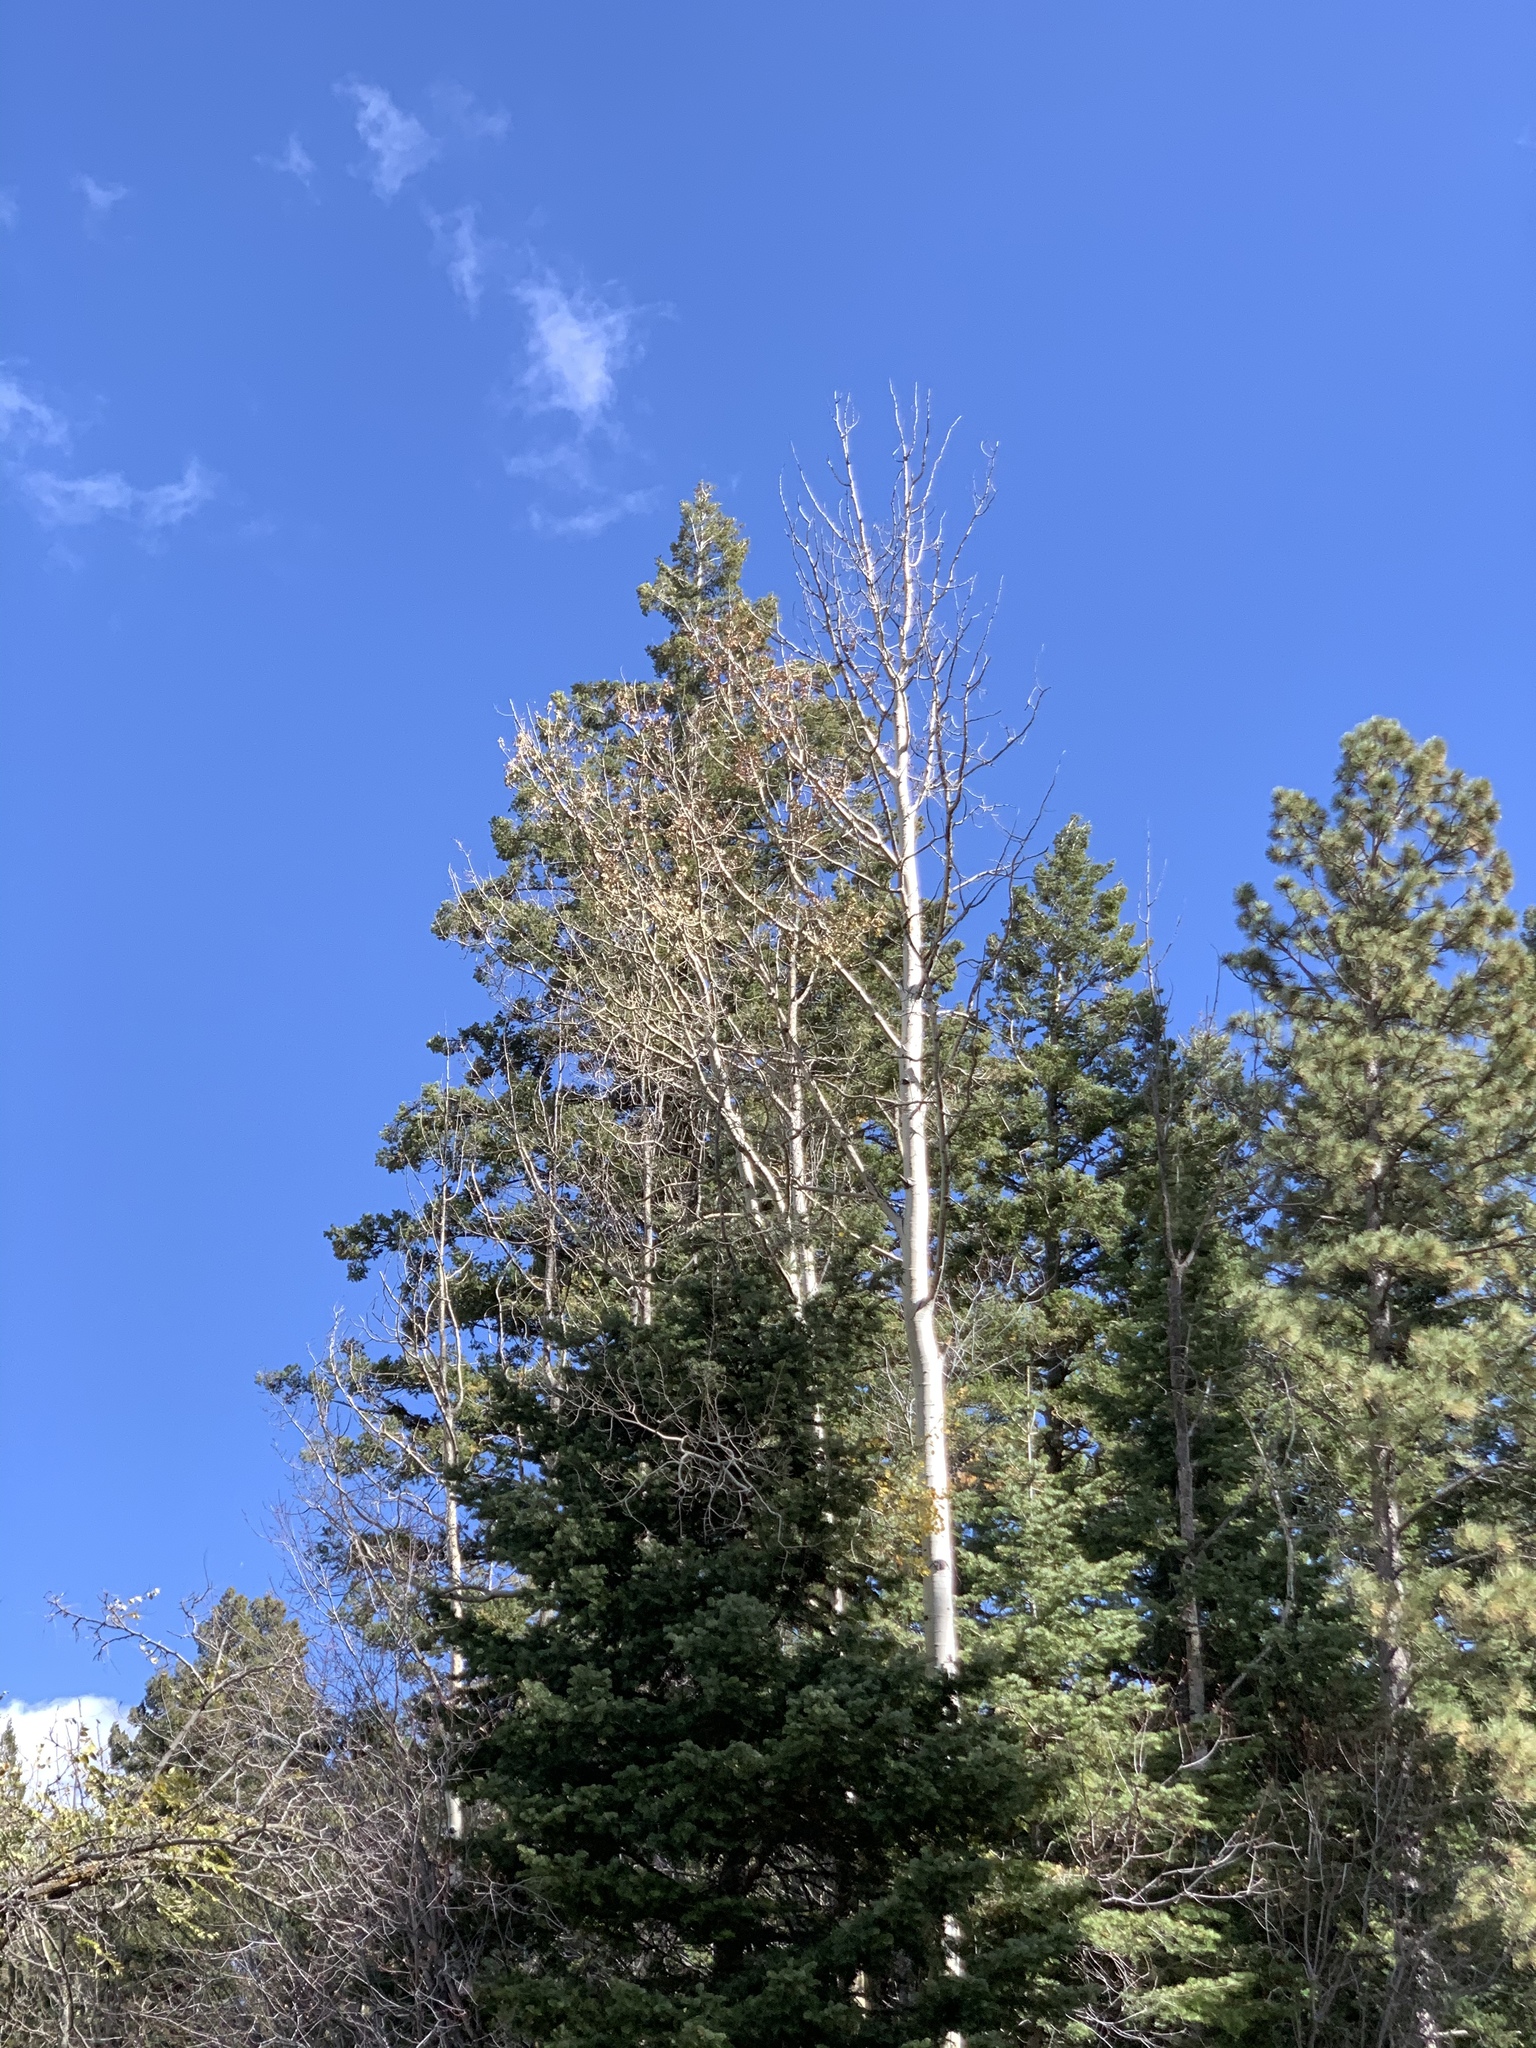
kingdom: Plantae
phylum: Tracheophyta
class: Magnoliopsida
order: Malpighiales
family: Salicaceae
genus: Populus
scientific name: Populus tremuloides
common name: Quaking aspen
